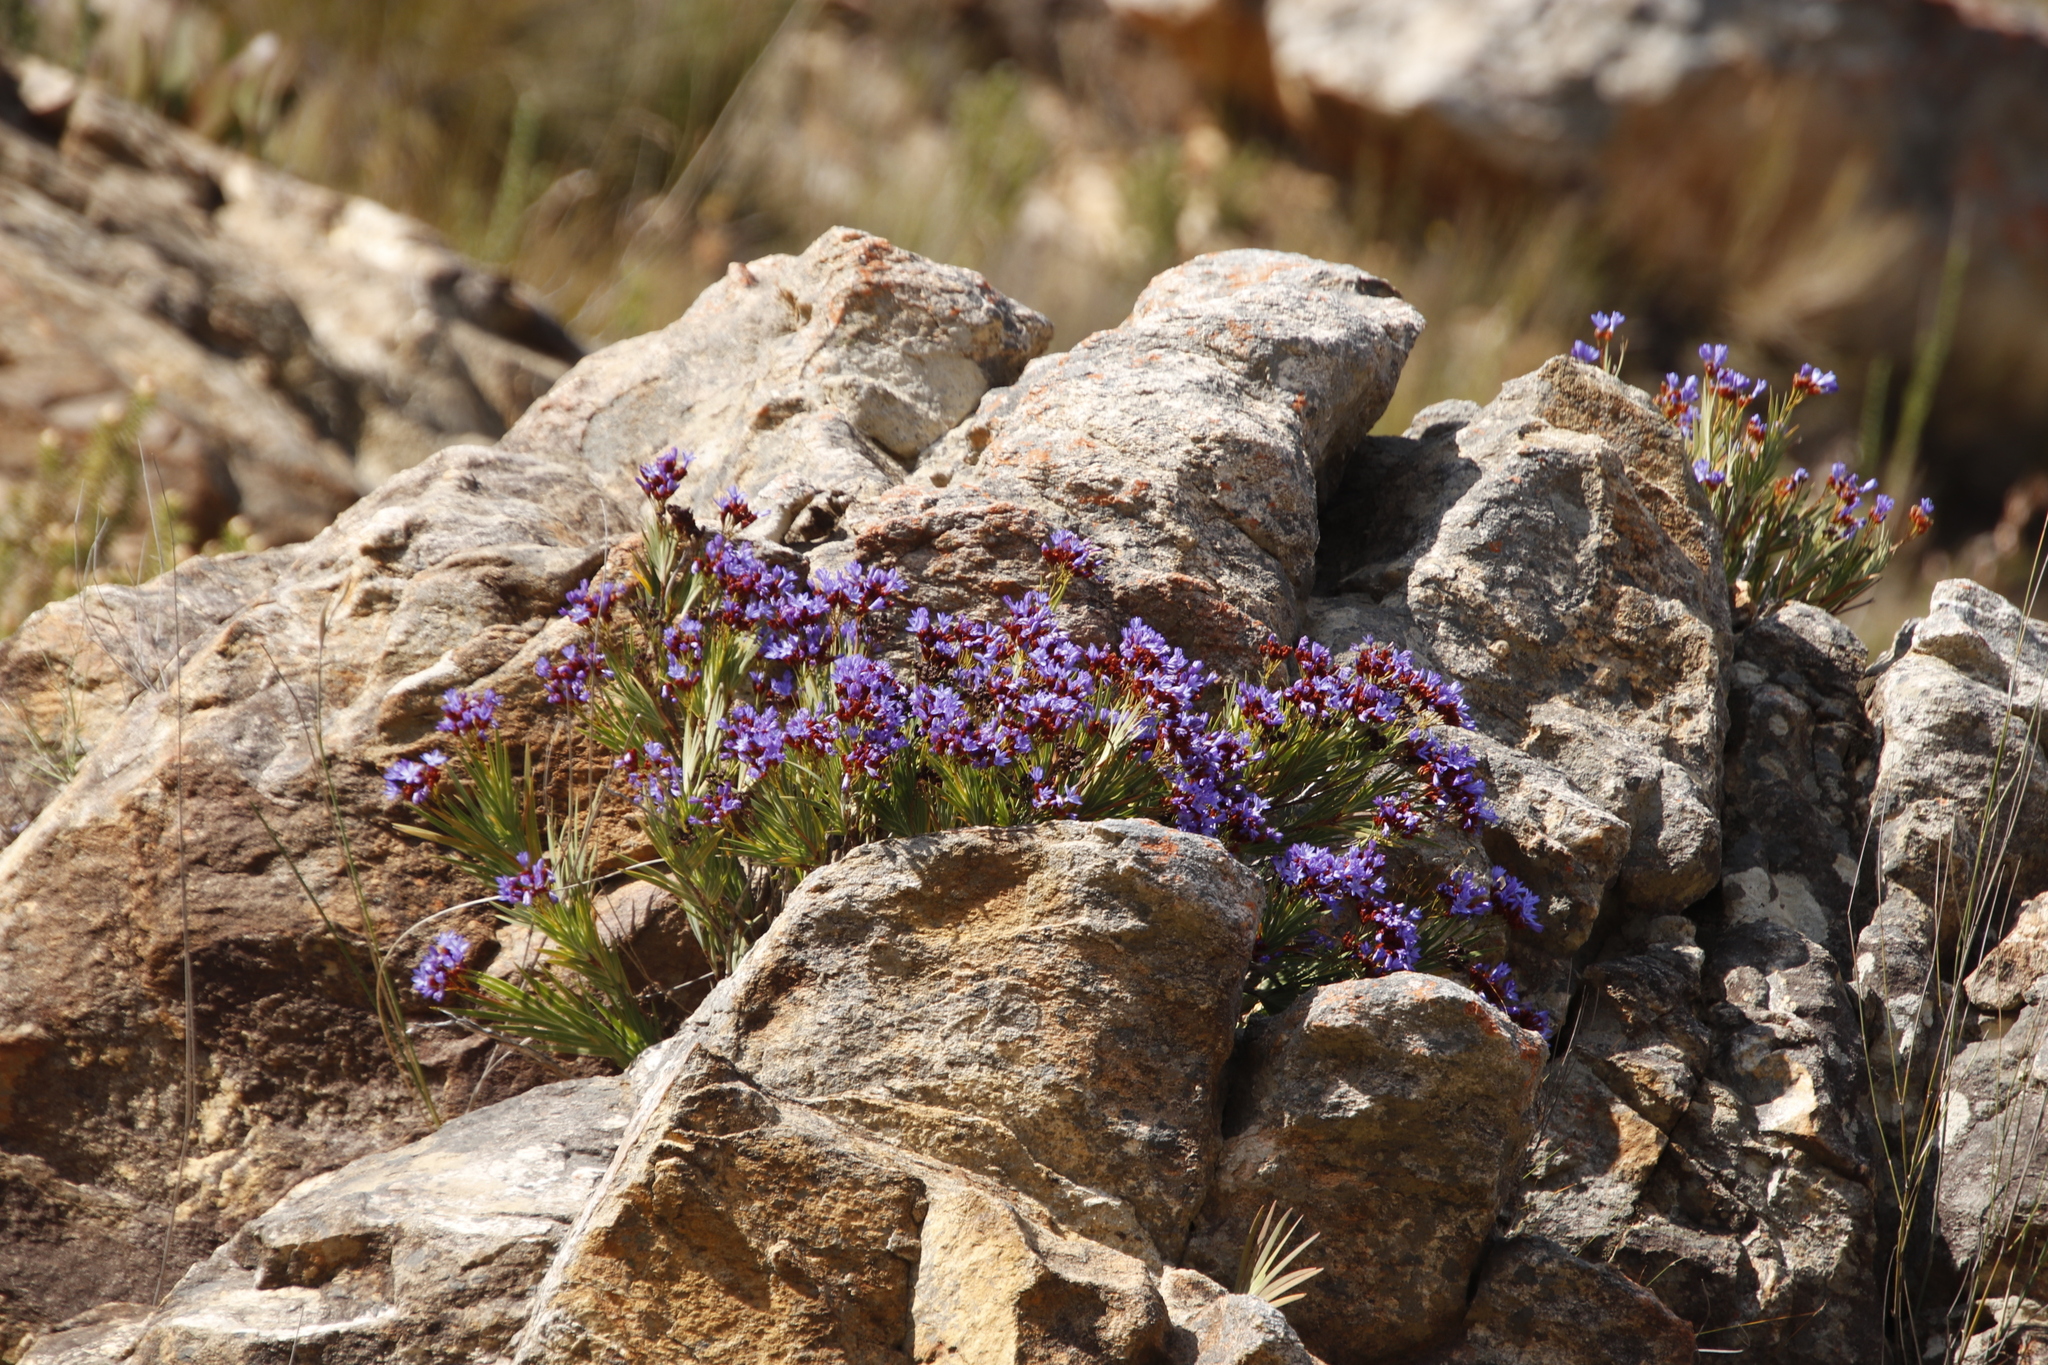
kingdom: Plantae
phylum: Tracheophyta
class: Liliopsida
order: Asparagales
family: Iridaceae
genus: Nivenia
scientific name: Nivenia binata
